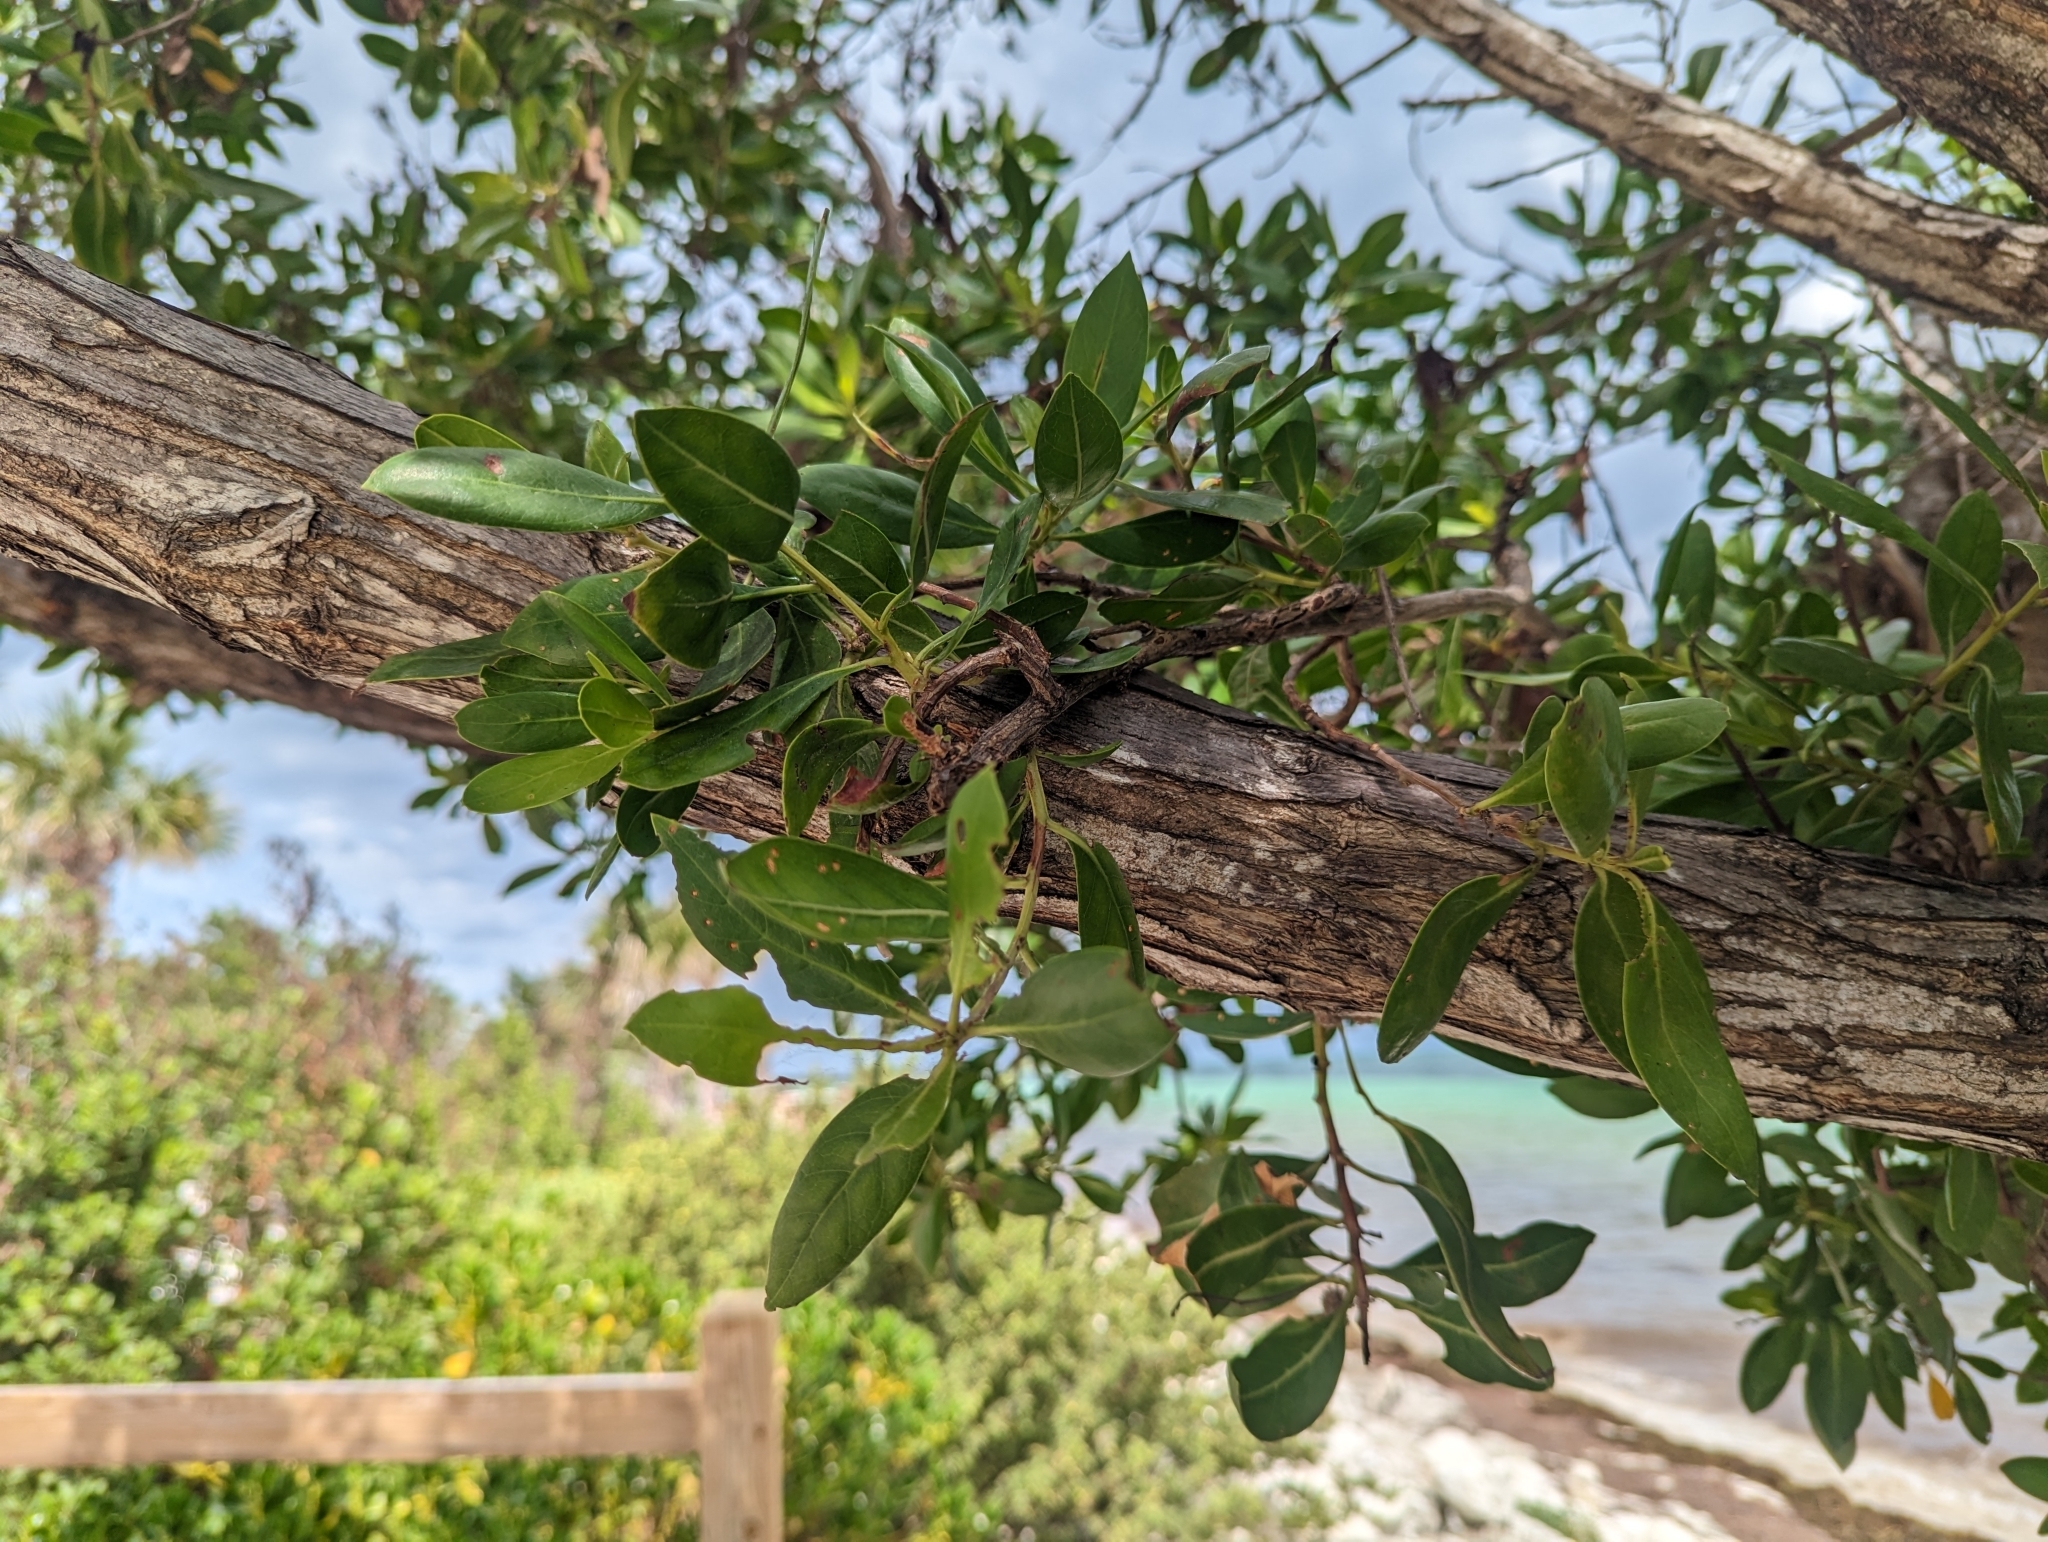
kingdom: Plantae
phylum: Tracheophyta
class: Magnoliopsida
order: Myrtales
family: Combretaceae
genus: Conocarpus
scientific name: Conocarpus erectus
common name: Button mangrove
